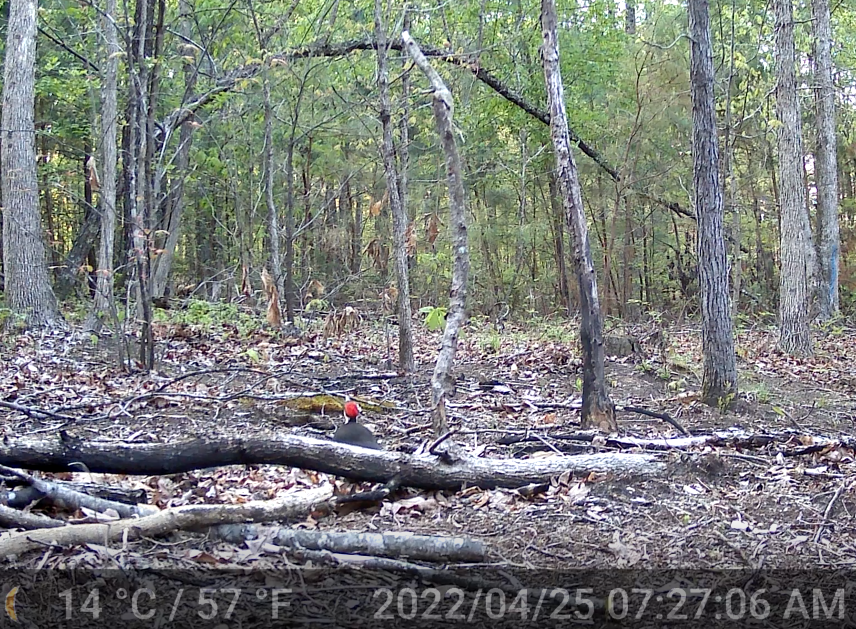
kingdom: Animalia
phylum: Chordata
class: Aves
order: Piciformes
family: Picidae
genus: Dryocopus
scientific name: Dryocopus pileatus
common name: Pileated woodpecker
